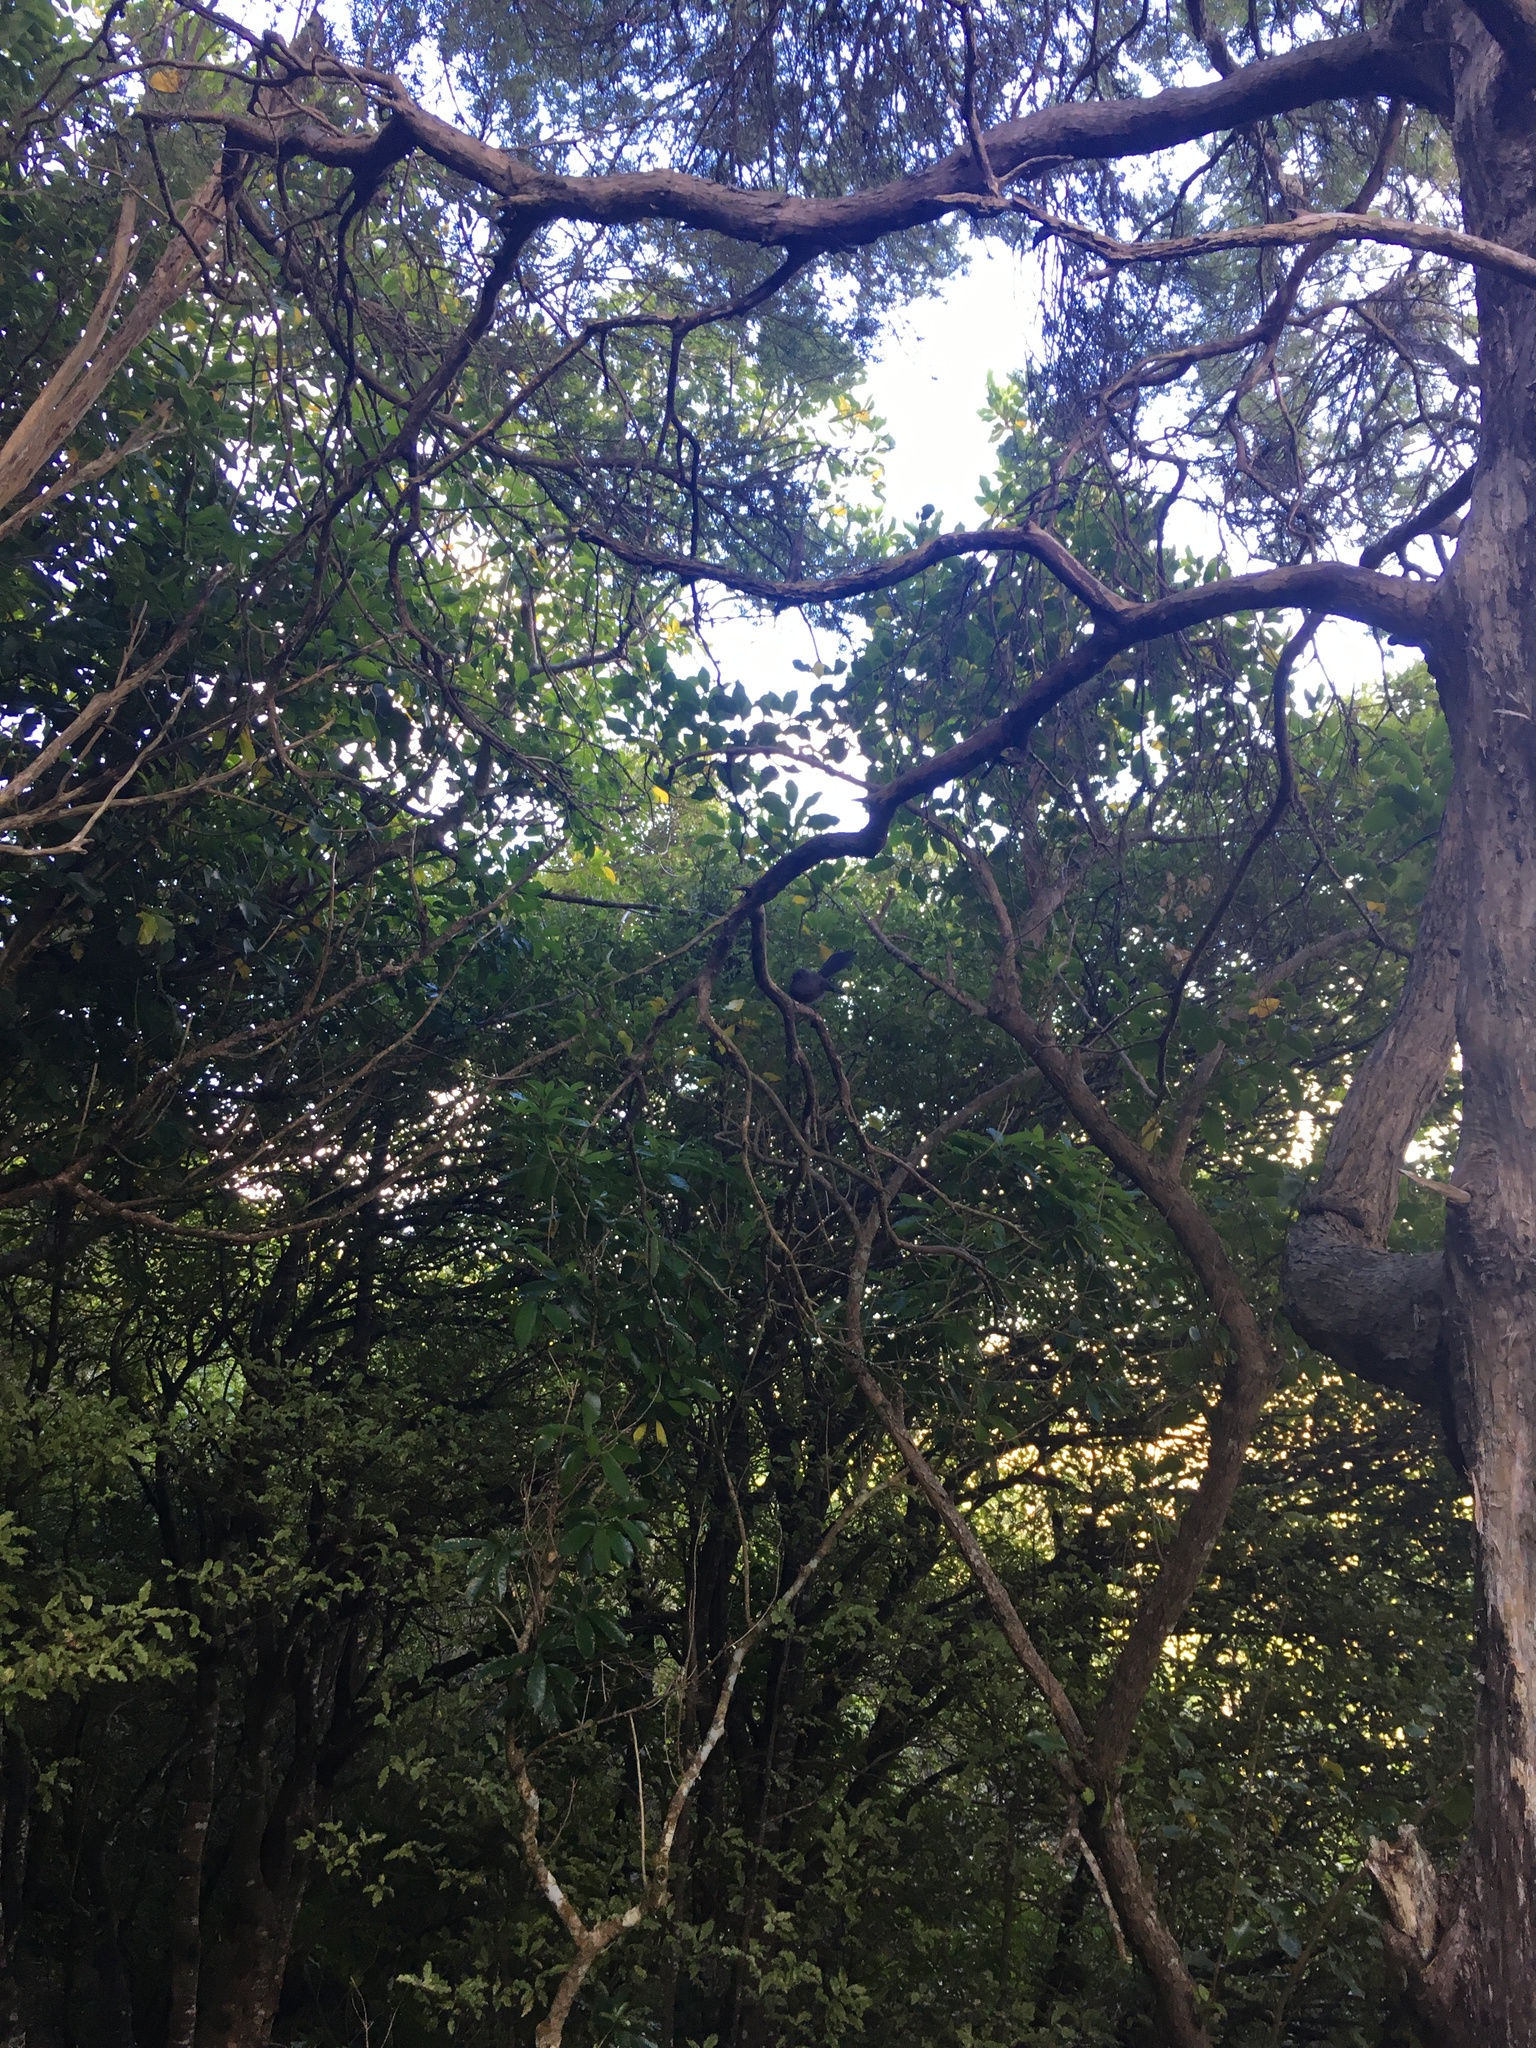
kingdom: Animalia
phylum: Chordata
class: Aves
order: Passeriformes
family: Rhipiduridae
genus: Rhipidura
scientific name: Rhipidura fuliginosa
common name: New zealand fantail
